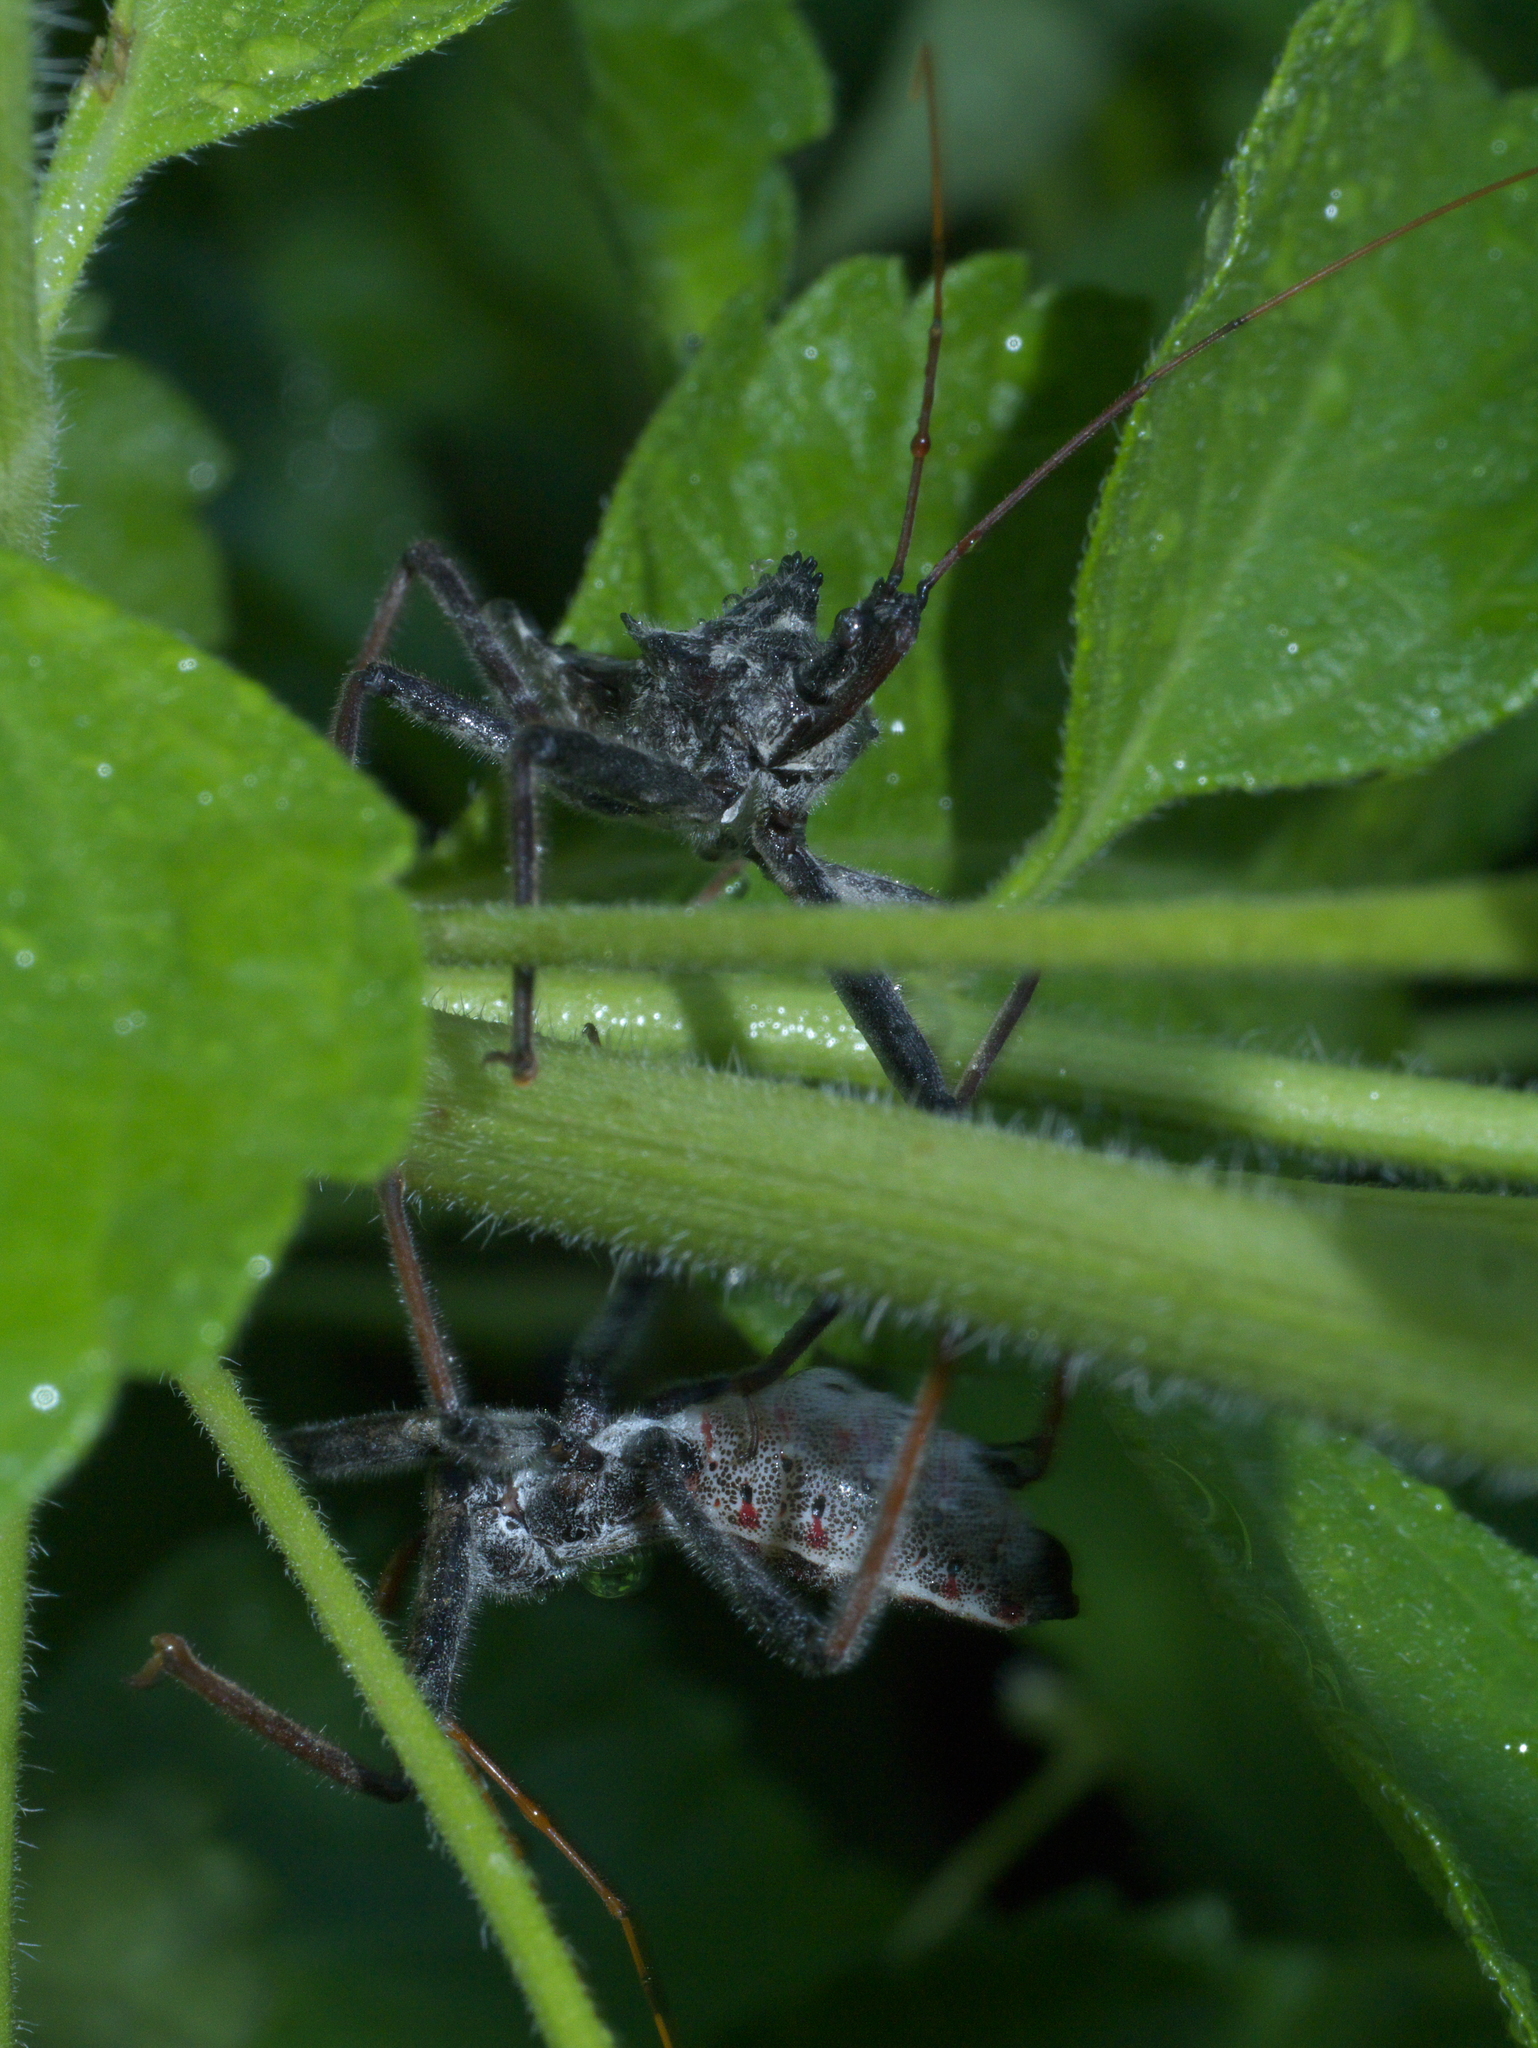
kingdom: Animalia
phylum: Arthropoda
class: Insecta
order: Hemiptera
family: Reduviidae
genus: Arilus
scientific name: Arilus cristatus
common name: North american wheel bug
